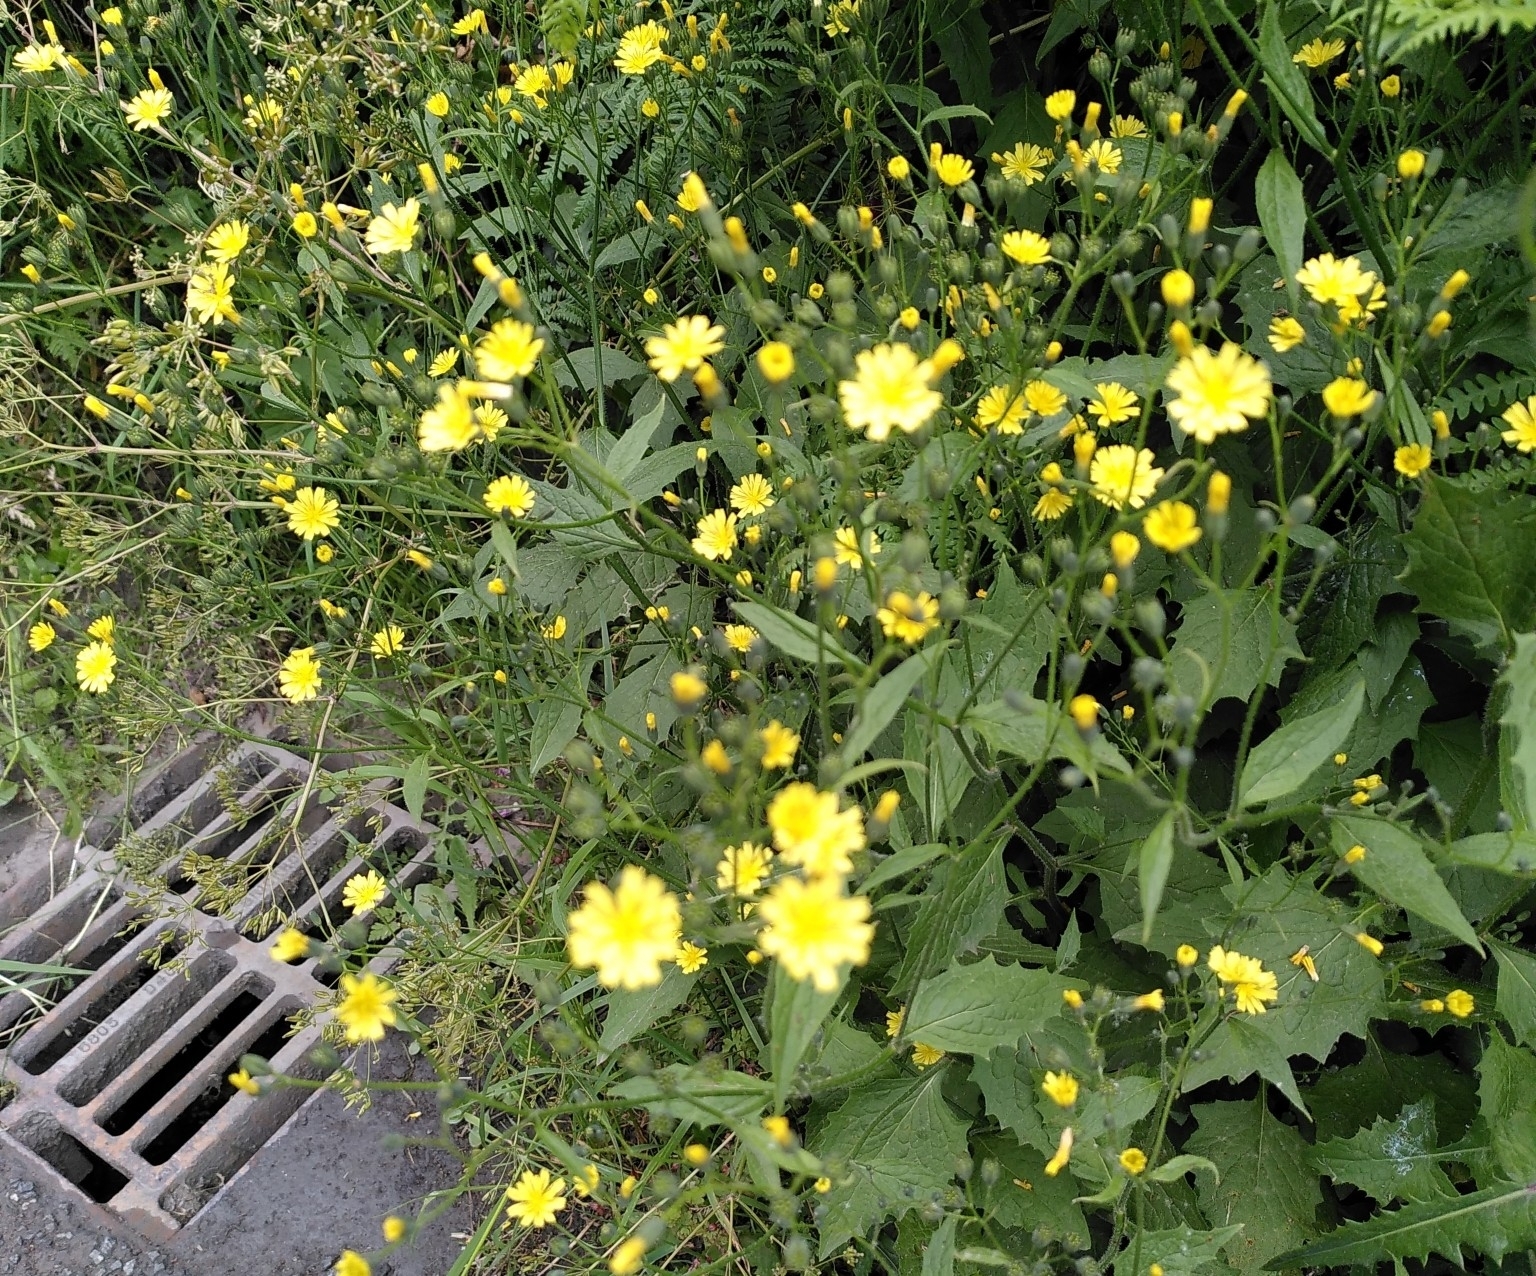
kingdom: Plantae
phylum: Tracheophyta
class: Magnoliopsida
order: Asterales
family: Asteraceae
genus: Lapsana
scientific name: Lapsana communis
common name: Nipplewort
